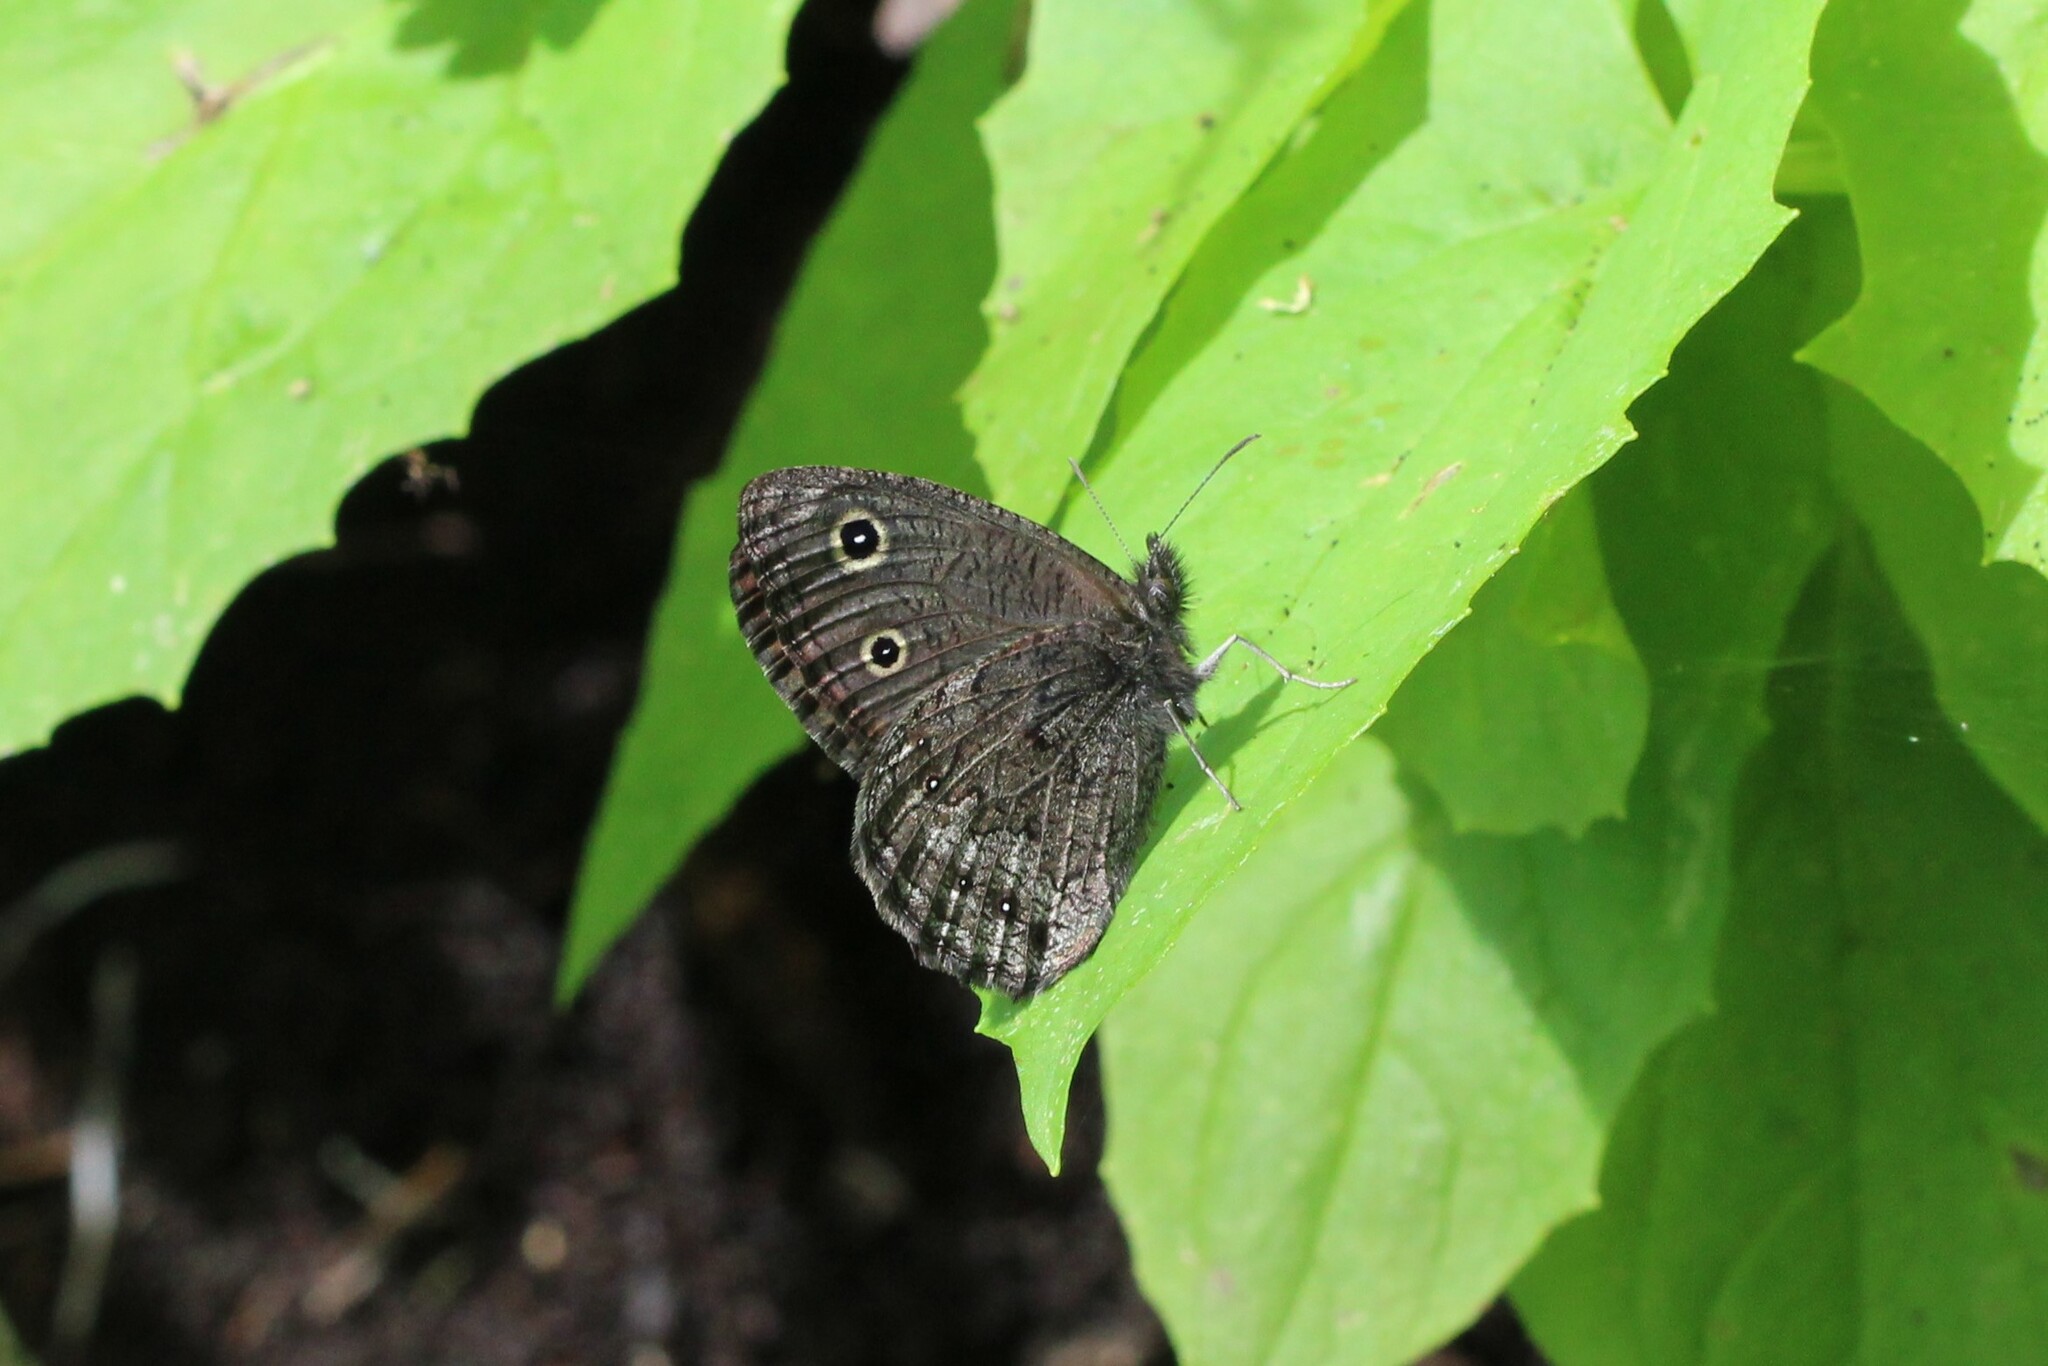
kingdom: Animalia
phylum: Arthropoda
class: Insecta
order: Lepidoptera
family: Nymphalidae
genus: Cercyonis
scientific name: Cercyonis oetus
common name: Small wood-nymph
